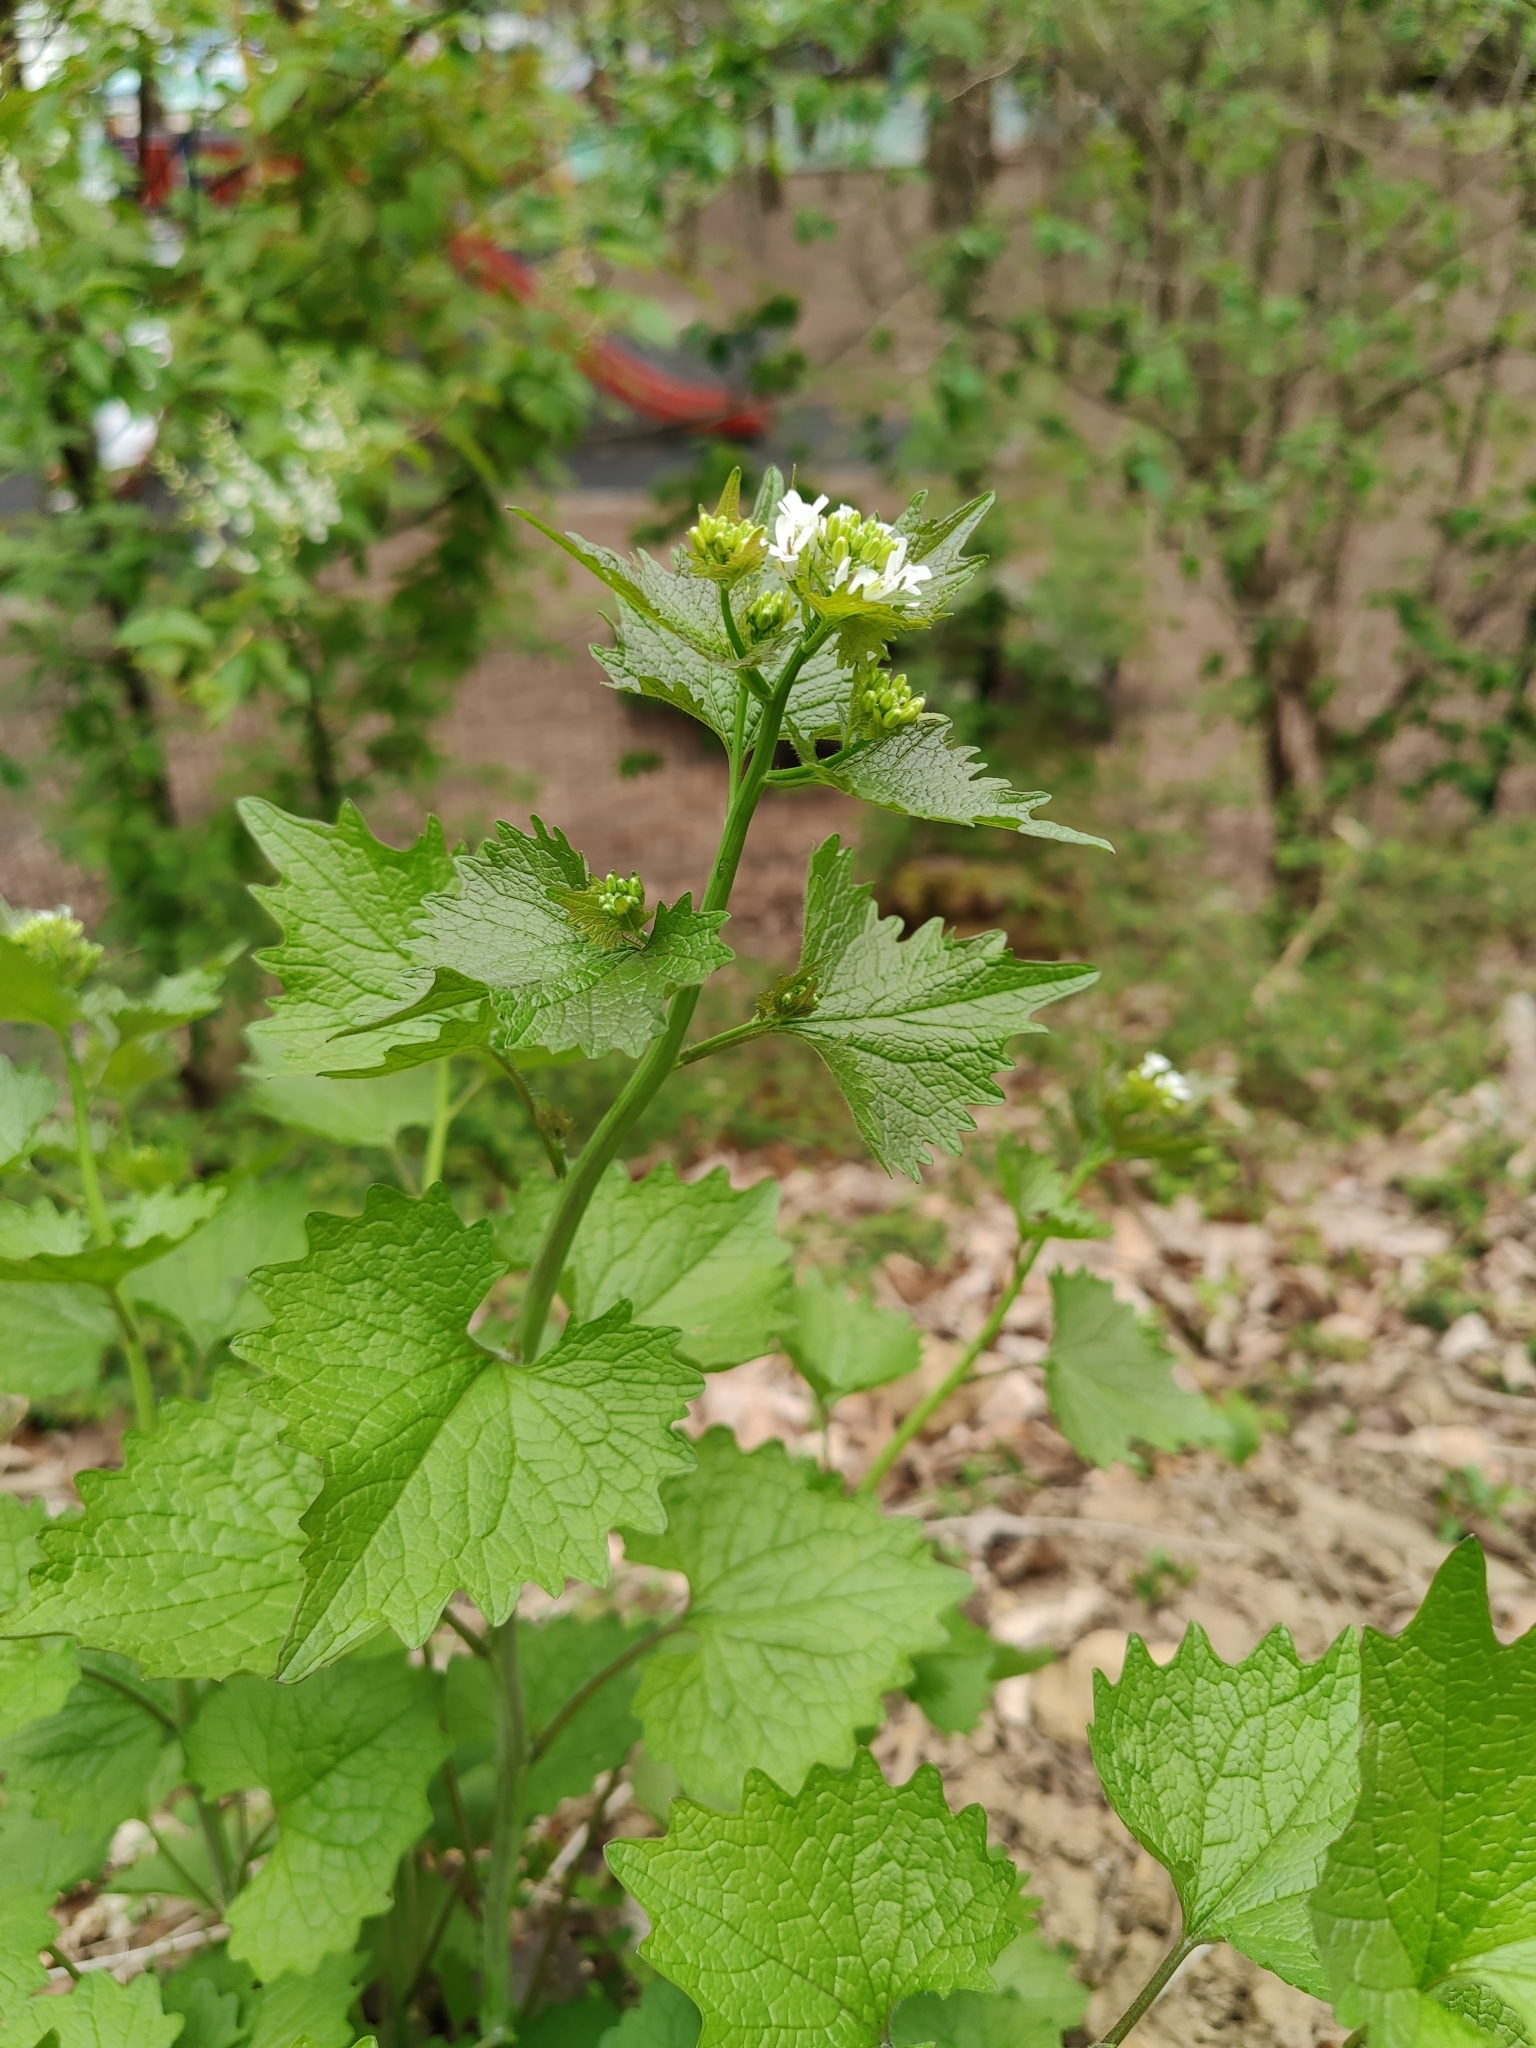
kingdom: Plantae
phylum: Tracheophyta
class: Magnoliopsida
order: Brassicales
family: Brassicaceae
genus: Alliaria
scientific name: Alliaria petiolata
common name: Garlic mustard
